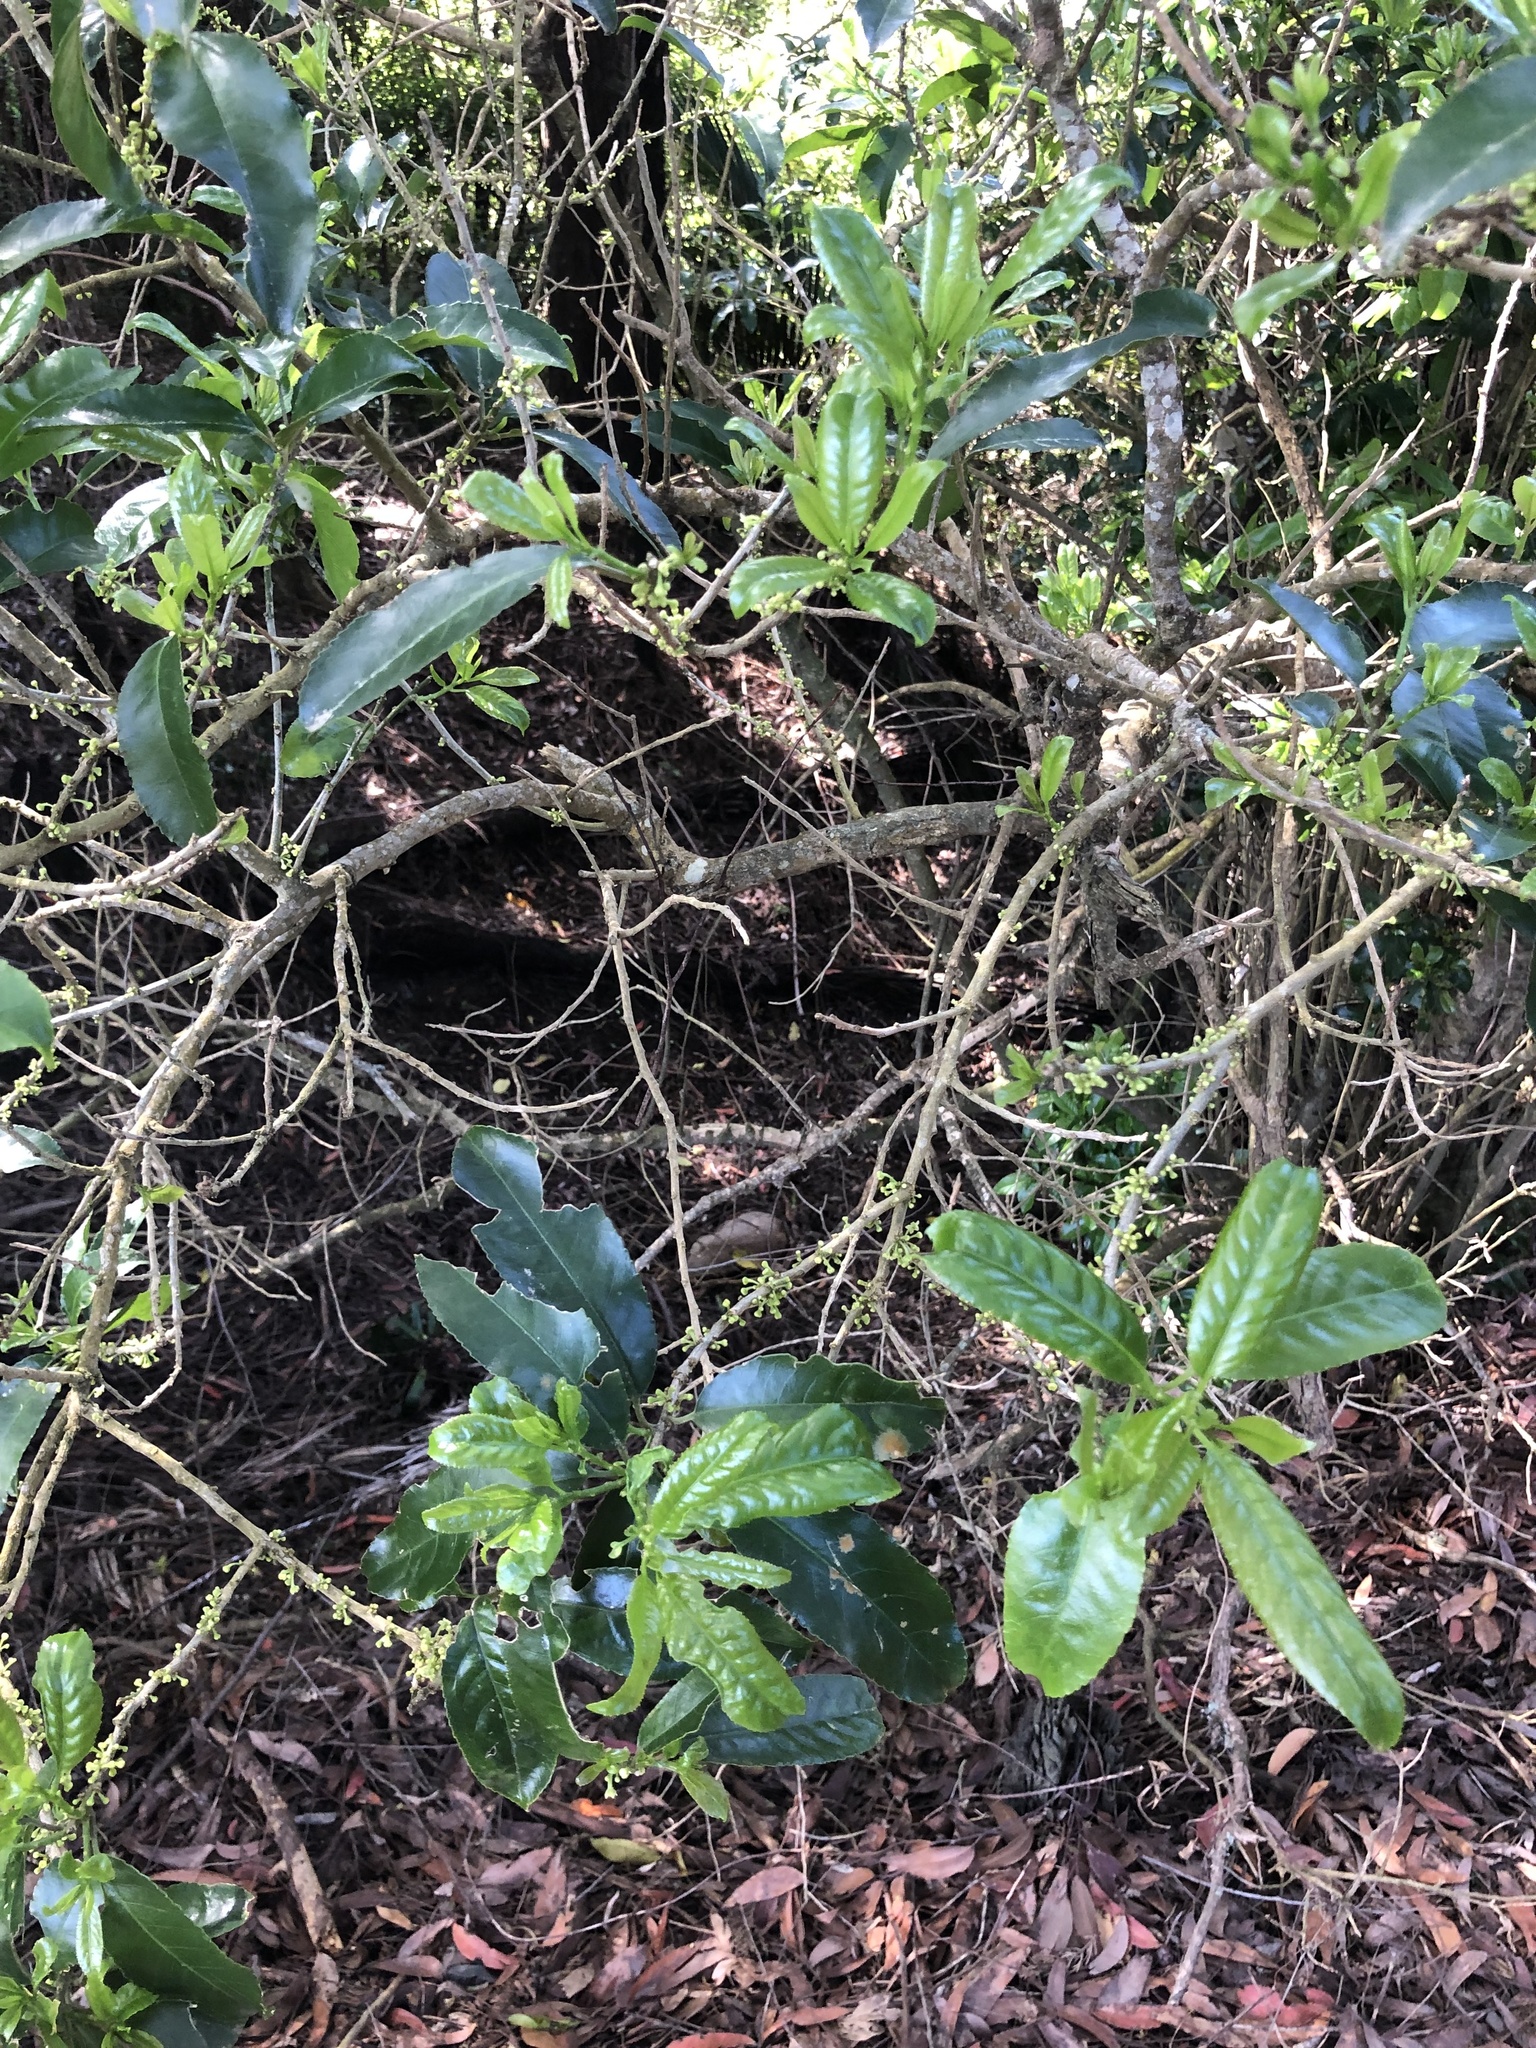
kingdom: Plantae
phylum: Tracheophyta
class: Magnoliopsida
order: Malpighiales
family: Violaceae
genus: Melicytus
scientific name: Melicytus ramiflorus
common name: Mahoe
